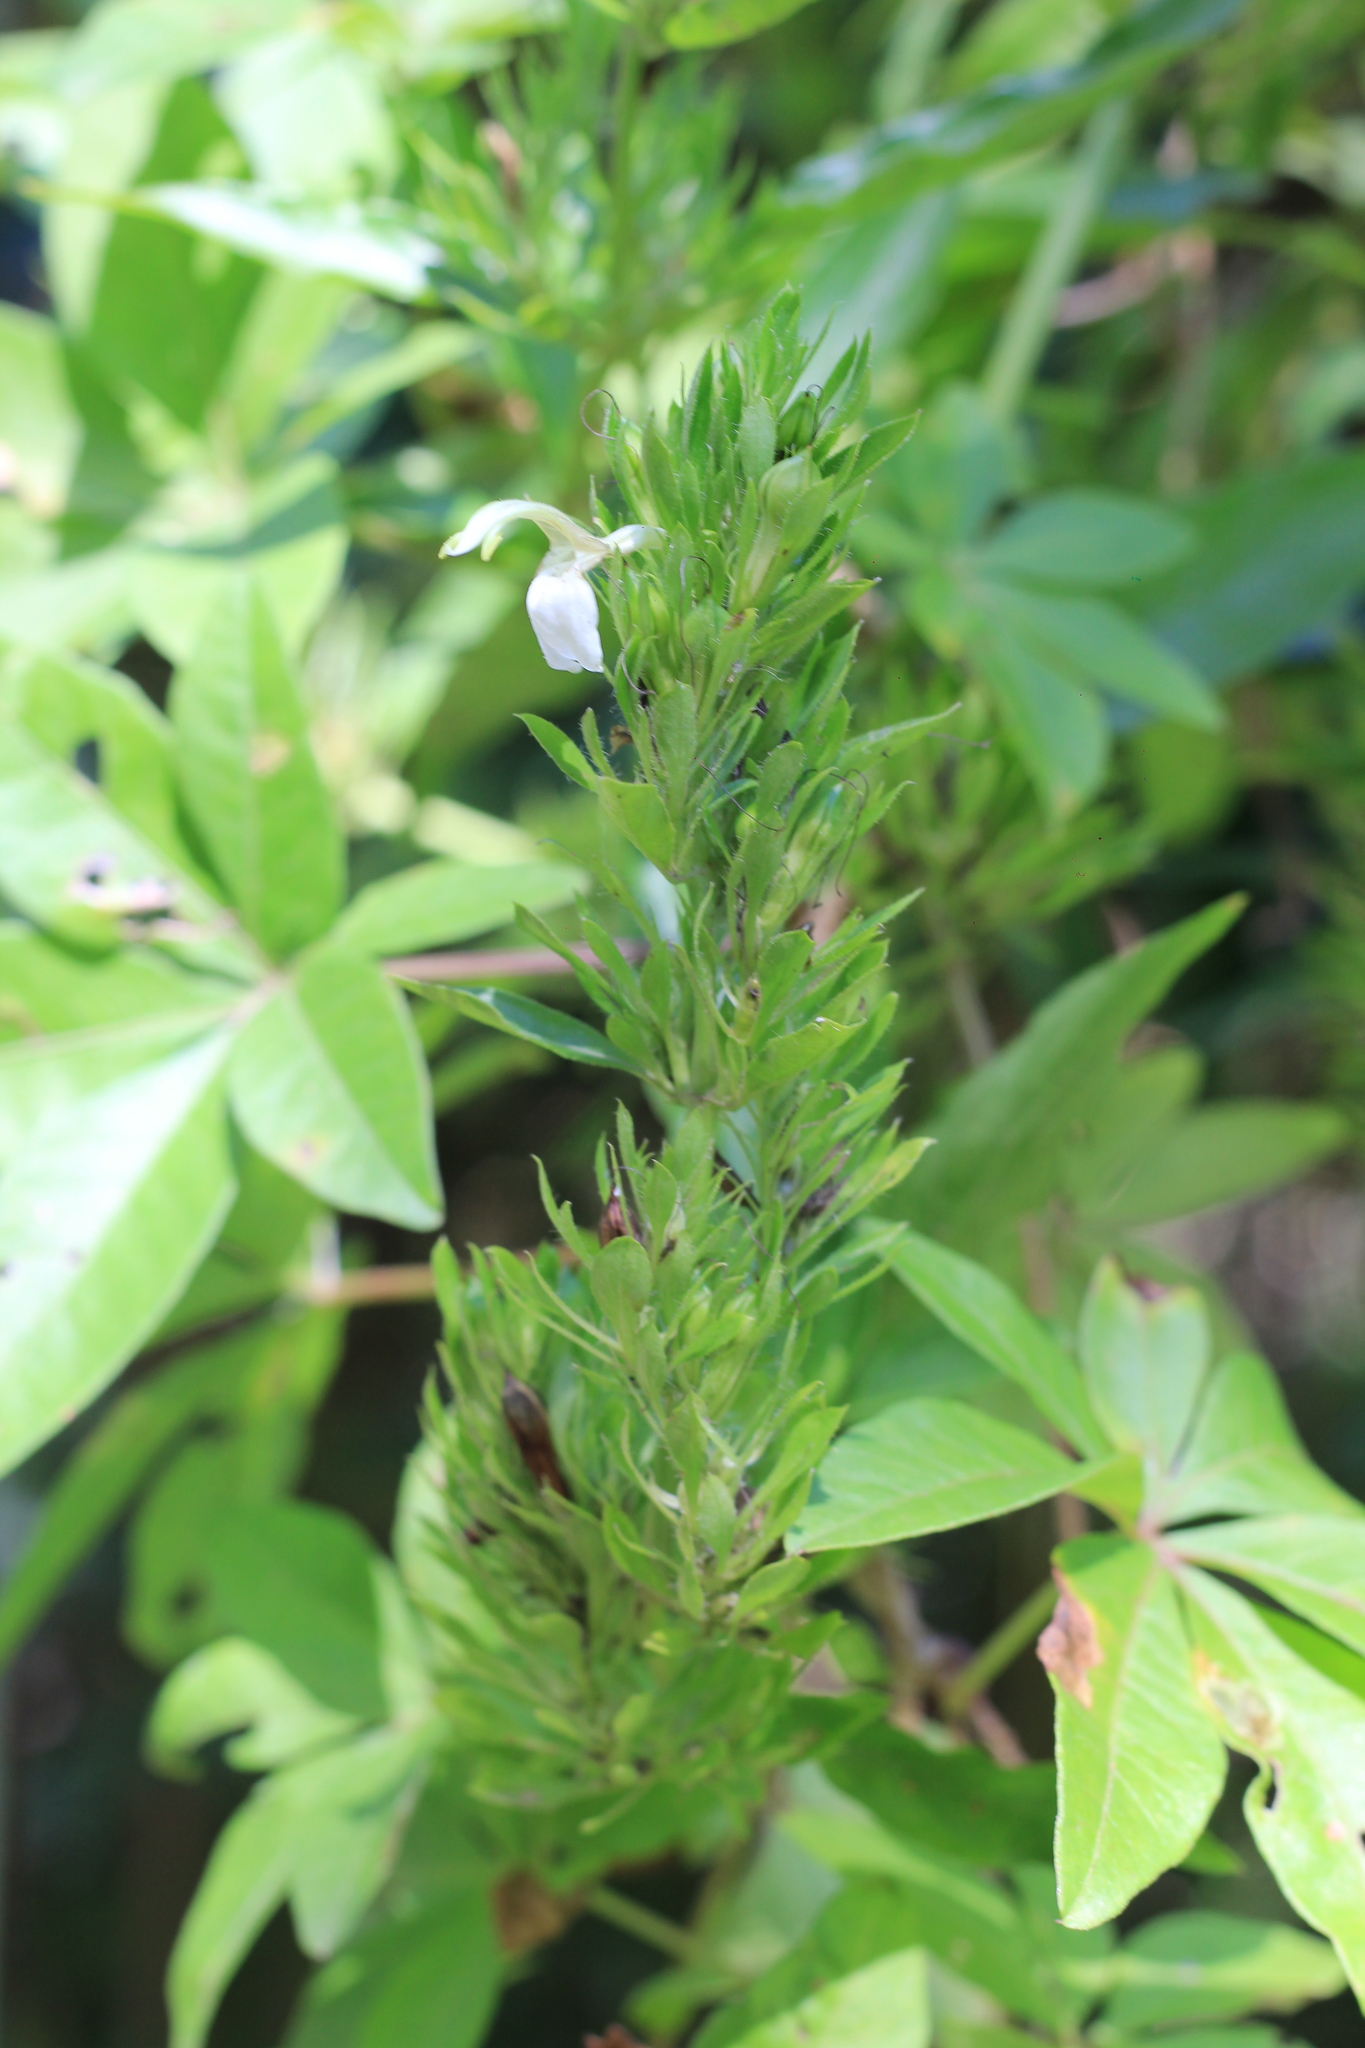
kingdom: Plantae
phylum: Tracheophyta
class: Magnoliopsida
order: Lamiales
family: Acanthaceae
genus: Poikilacanthus
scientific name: Poikilacanthus glandulosus
